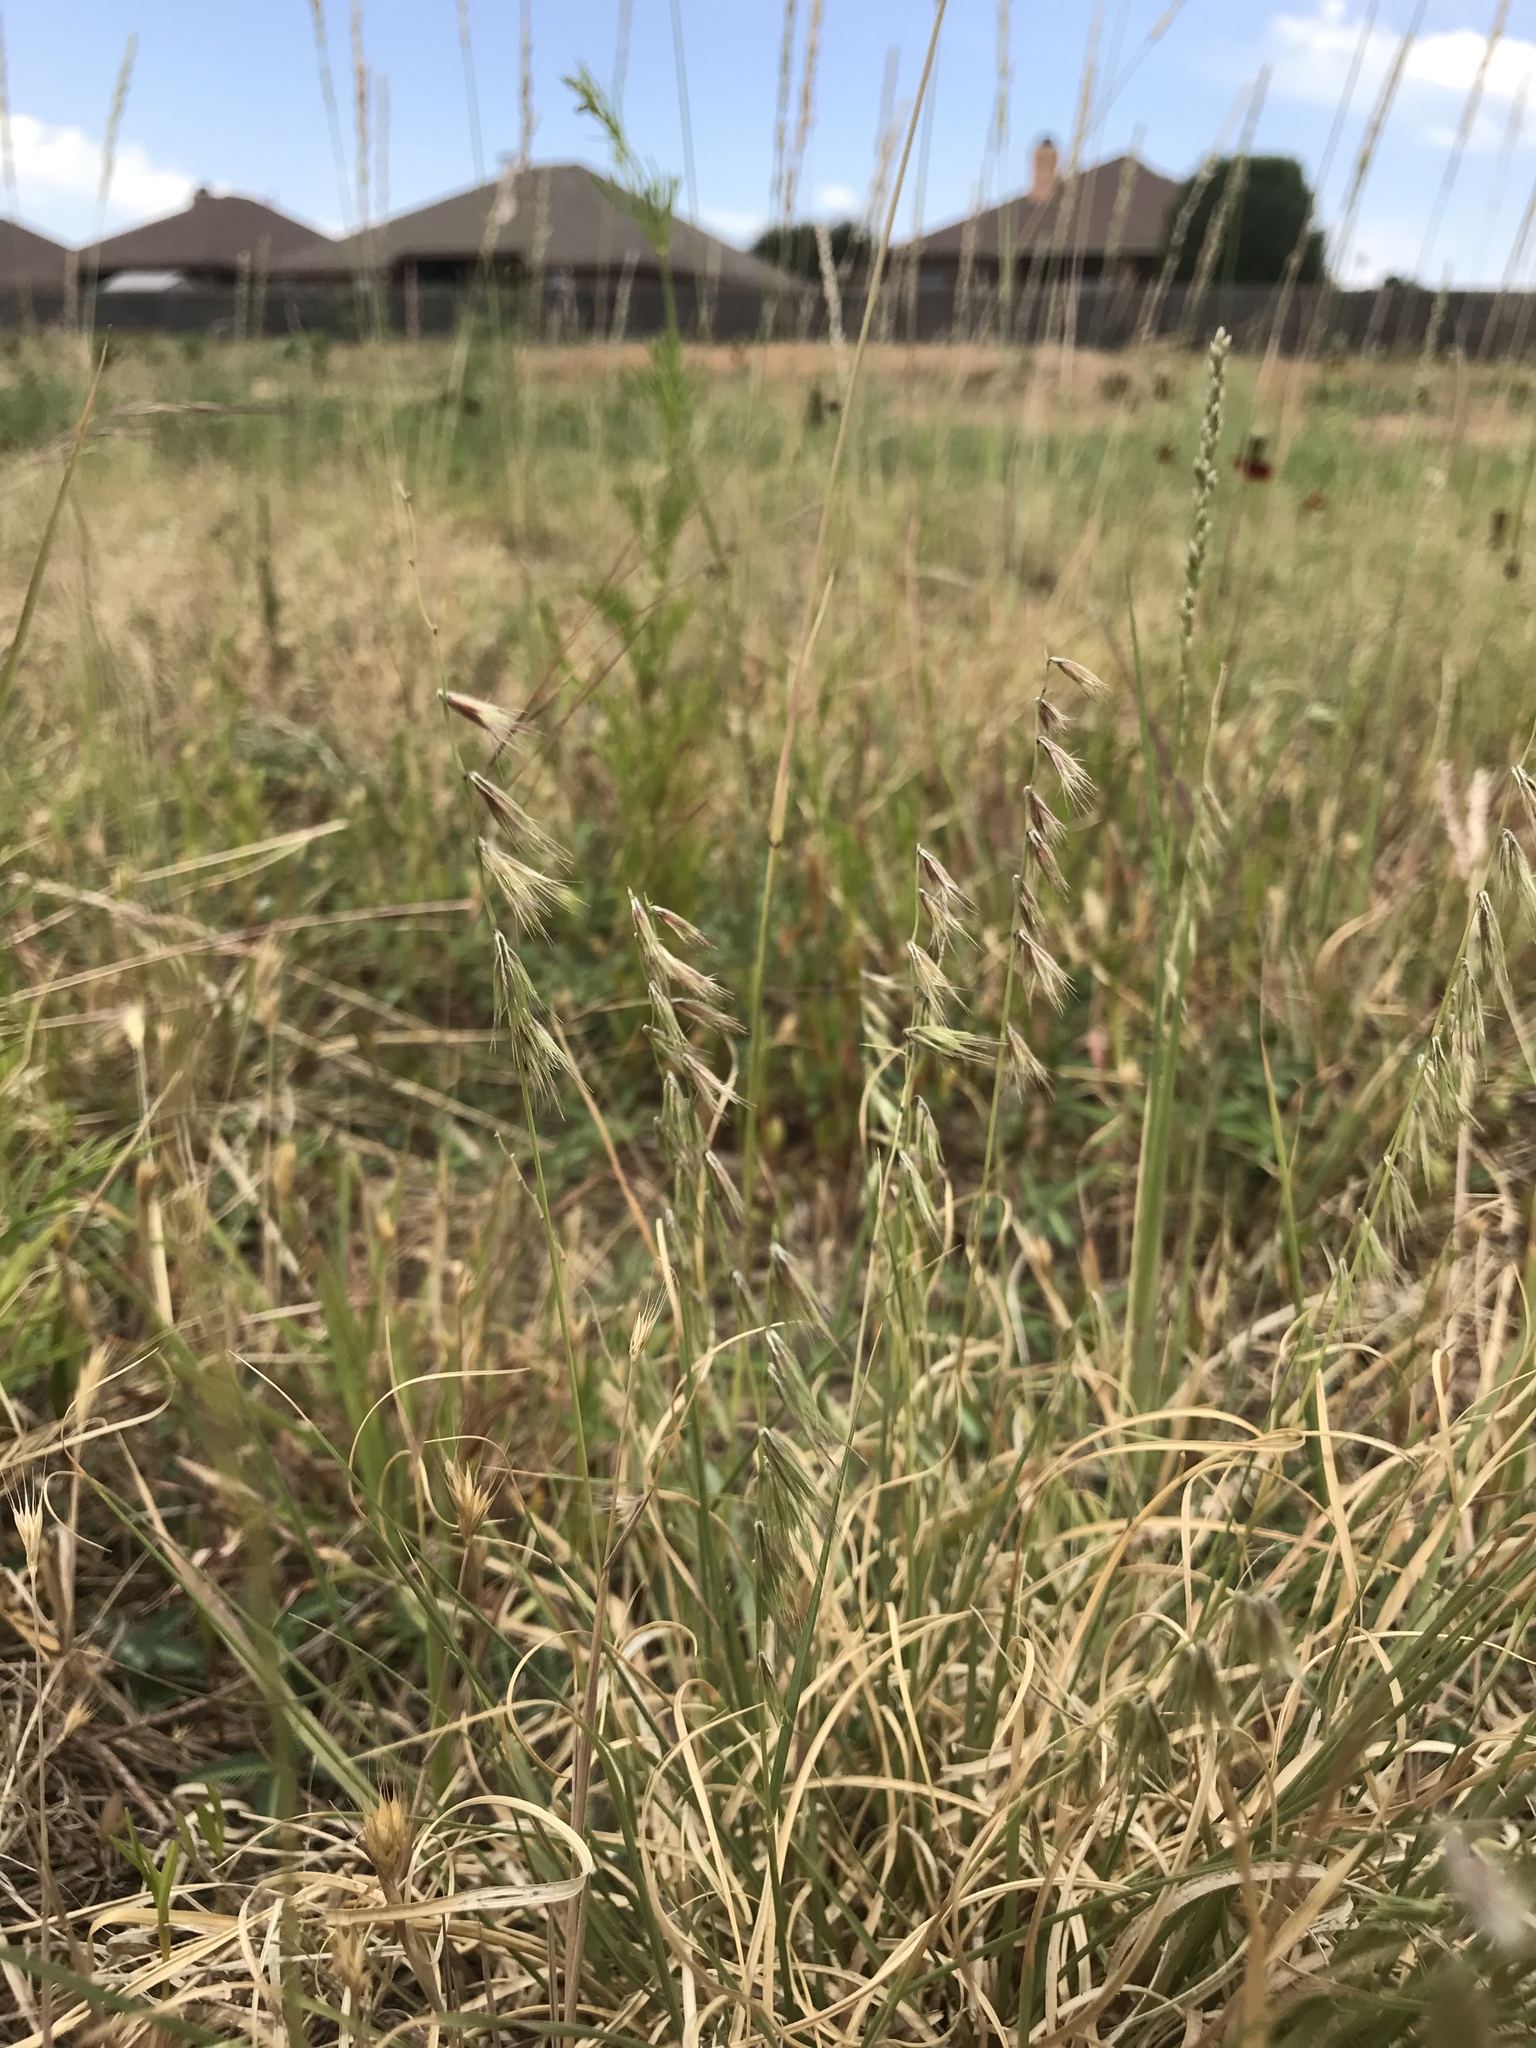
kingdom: Plantae
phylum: Tracheophyta
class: Liliopsida
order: Poales
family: Poaceae
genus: Bouteloua
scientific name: Bouteloua rigidiseta
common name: Texas grama
